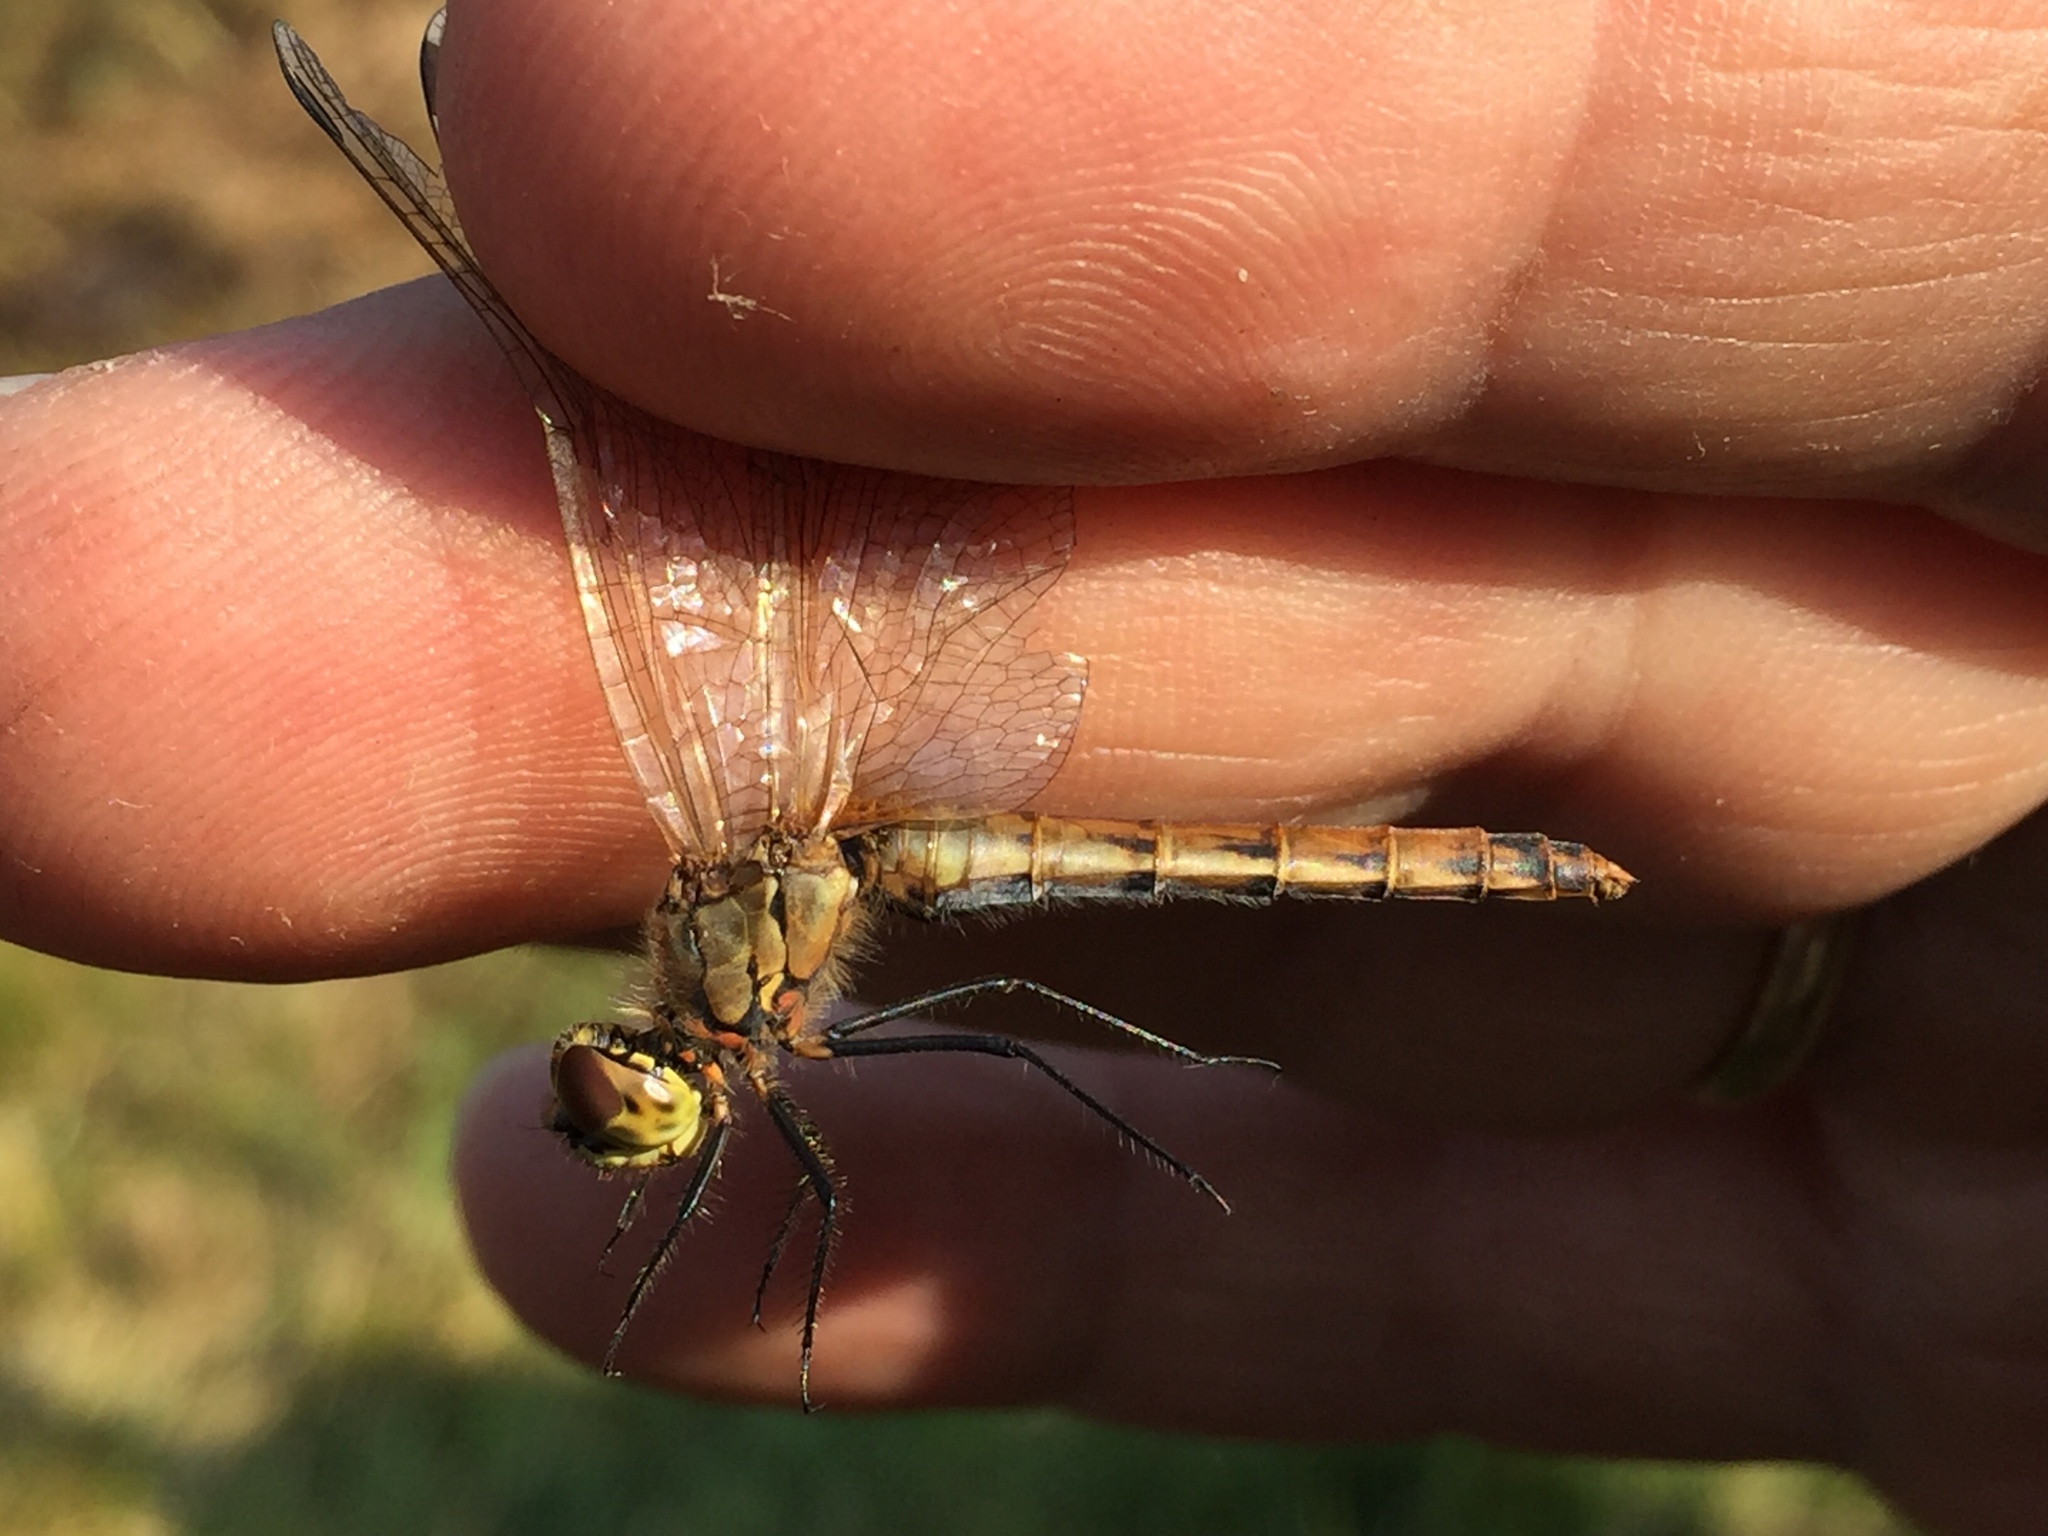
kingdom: Animalia
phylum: Arthropoda
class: Insecta
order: Odonata
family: Libellulidae
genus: Sympetrum
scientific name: Sympetrum depressiusculum
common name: Spotted darter
